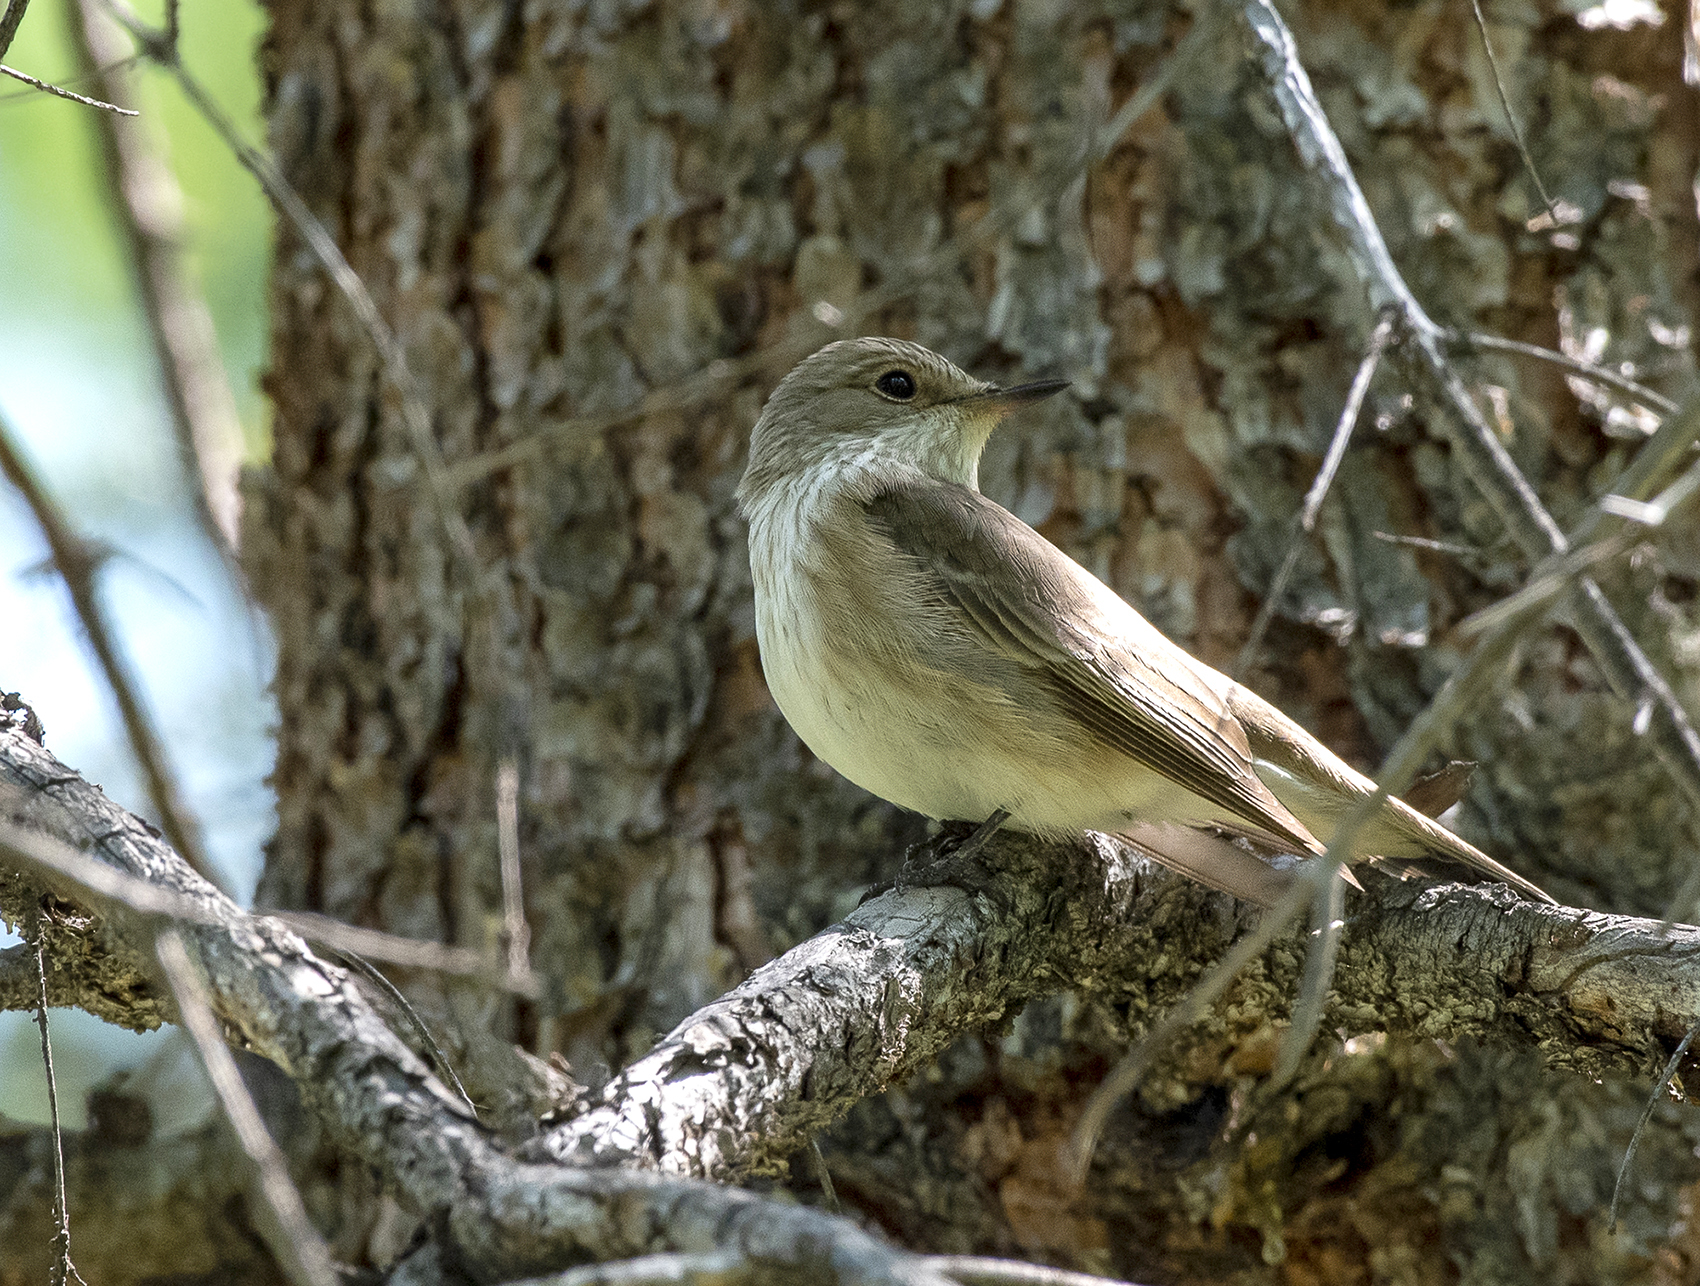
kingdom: Animalia
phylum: Chordata
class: Aves
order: Passeriformes
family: Muscicapidae
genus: Muscicapa
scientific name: Muscicapa striata
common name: Spotted flycatcher
